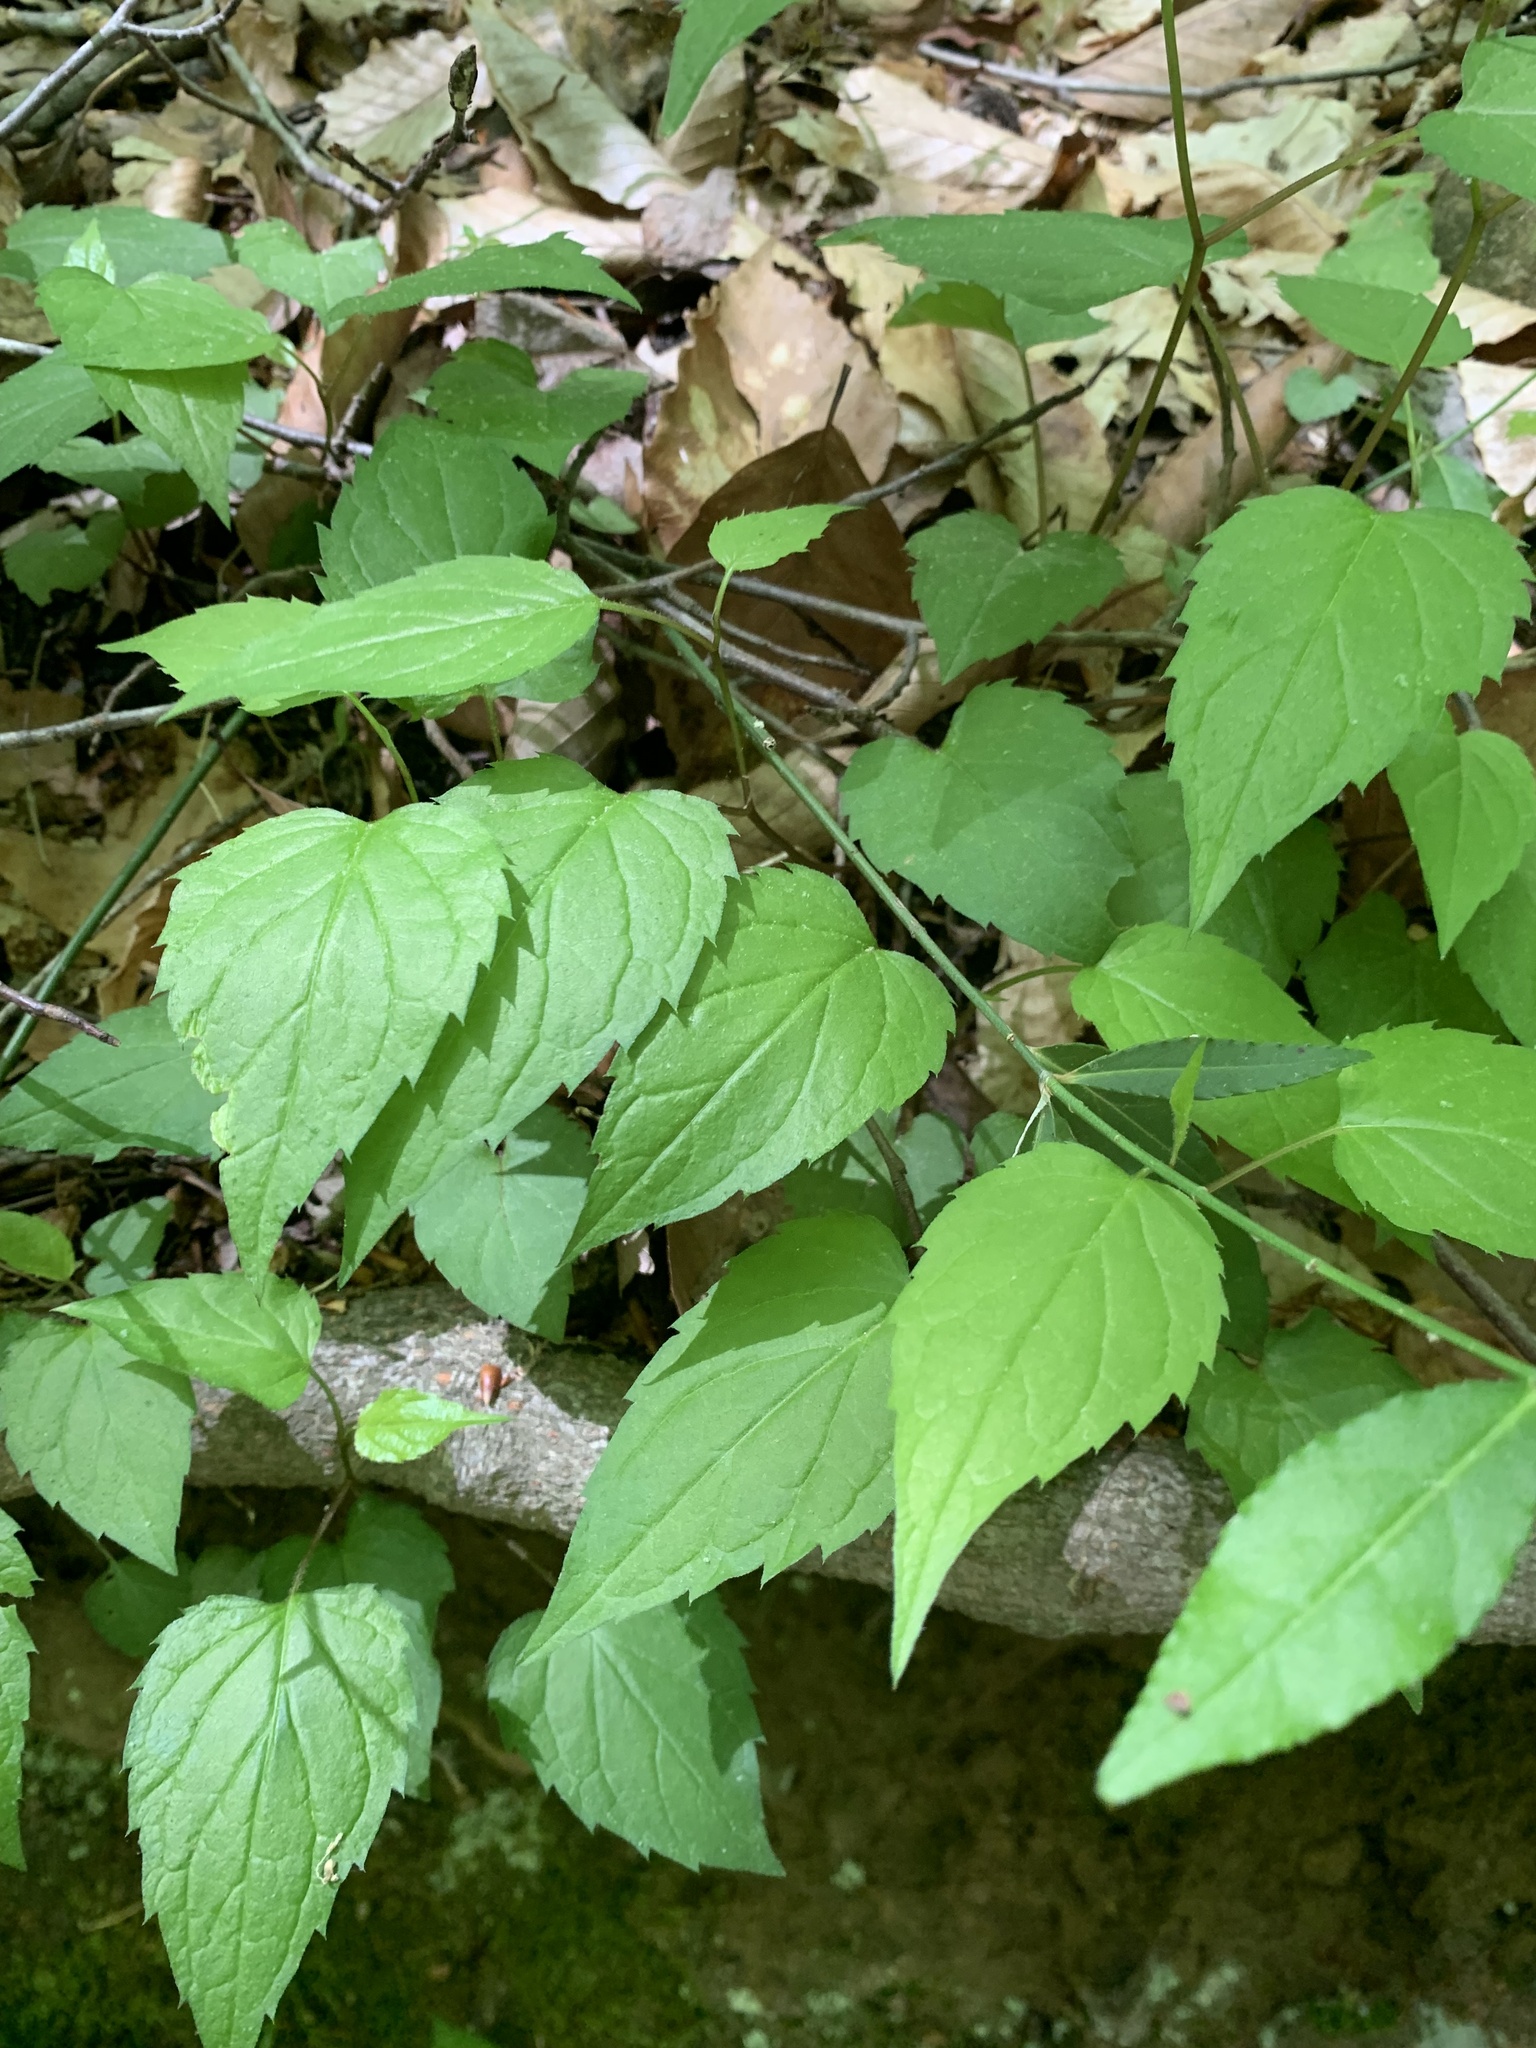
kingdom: Plantae
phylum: Tracheophyta
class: Magnoliopsida
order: Asterales
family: Asteraceae
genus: Eurybia
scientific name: Eurybia divaricata
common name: White wood aster
